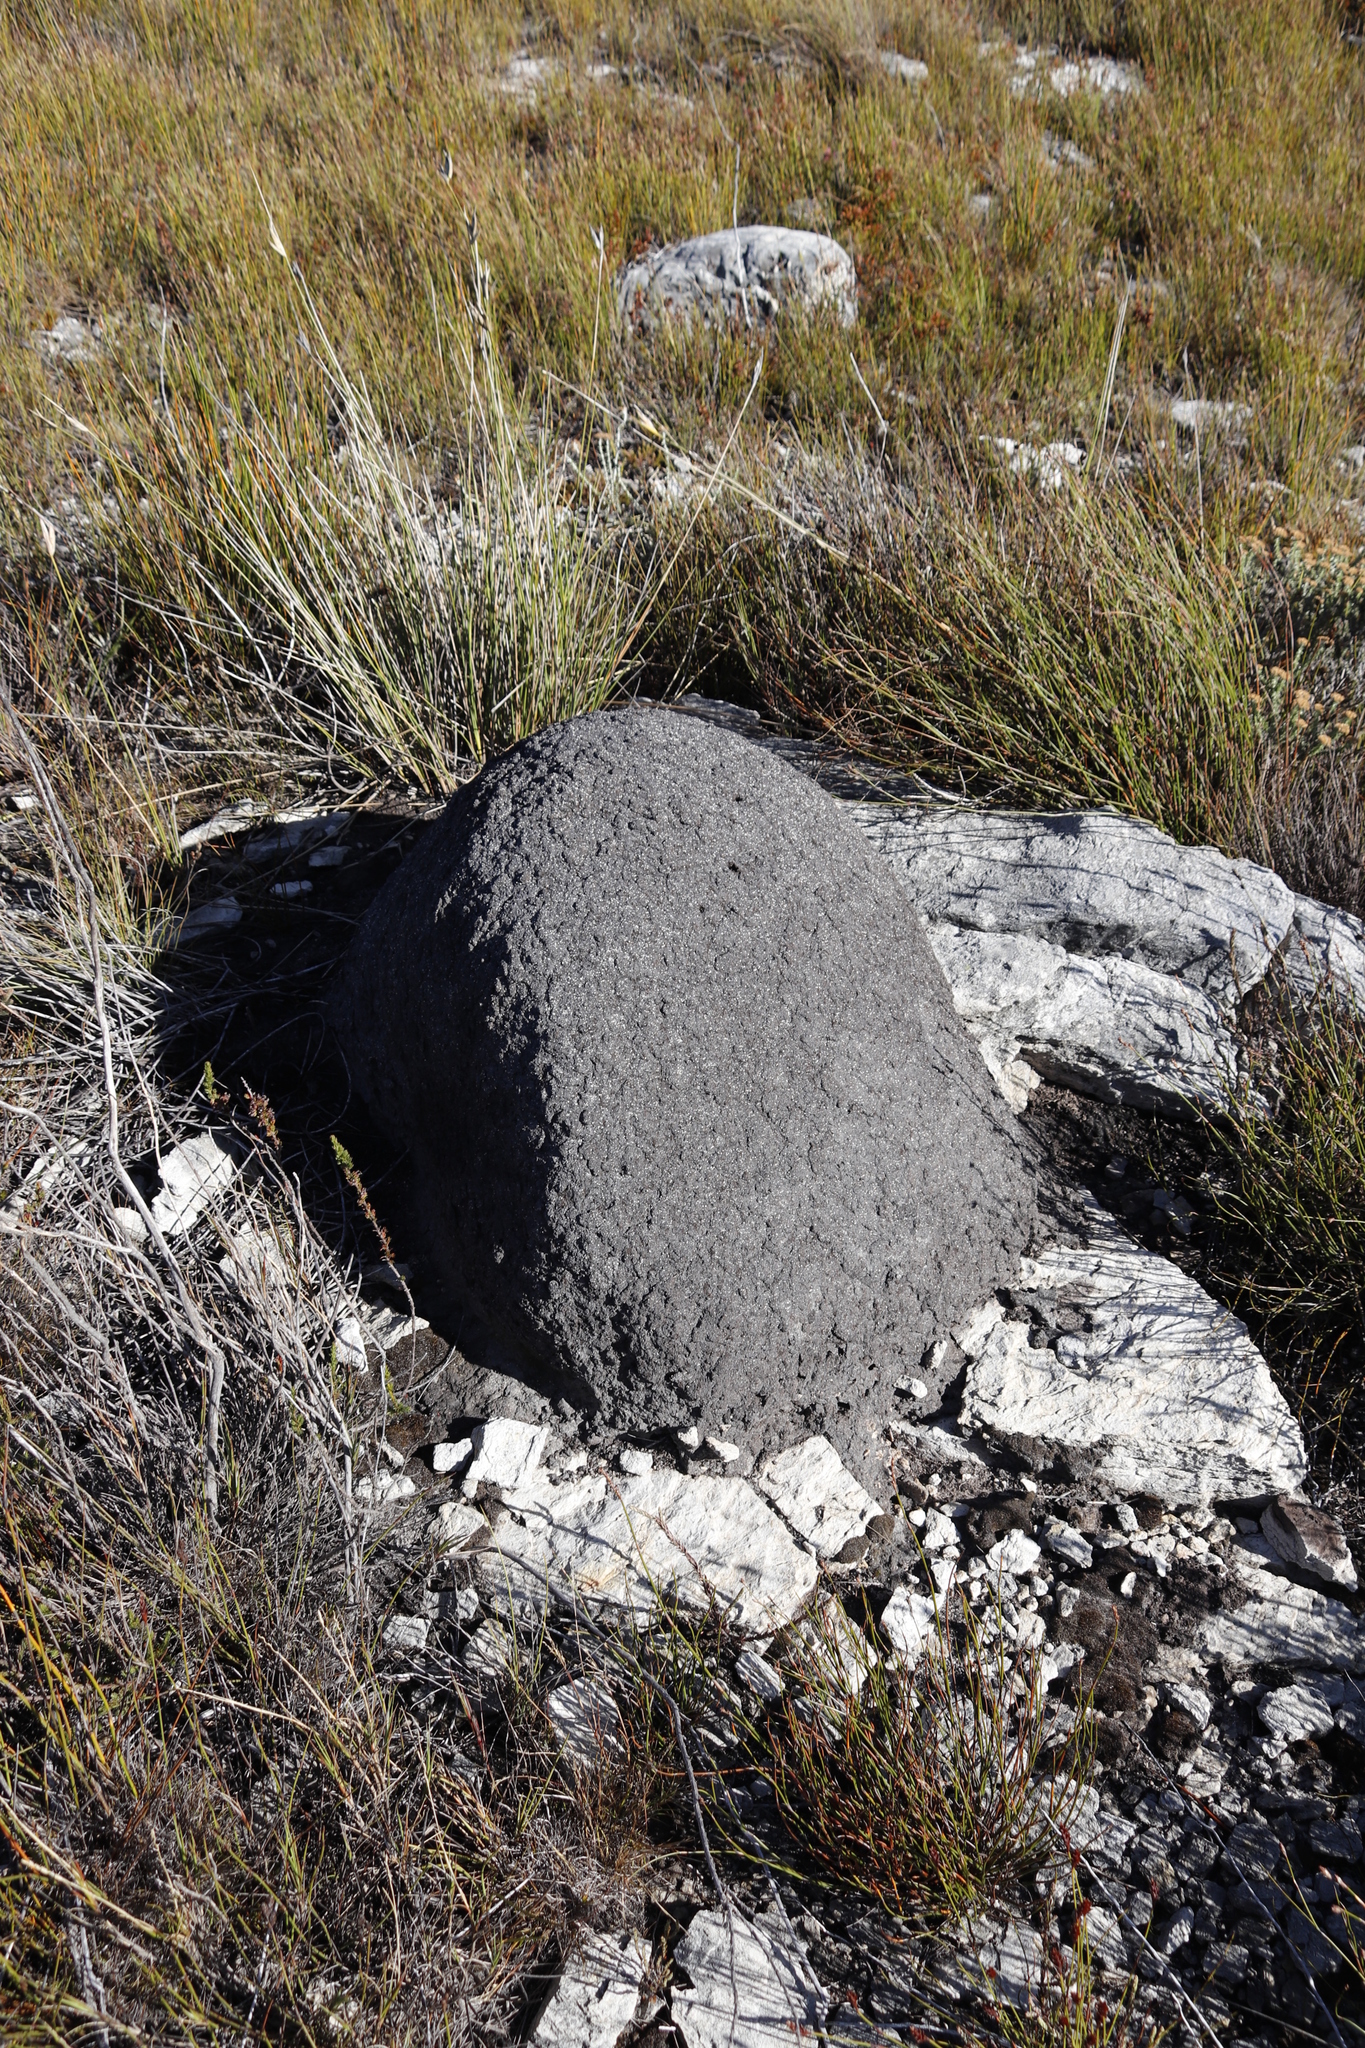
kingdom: Animalia
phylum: Arthropoda
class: Insecta
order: Blattodea
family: Termitidae
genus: Amitermes
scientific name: Amitermes hastatus
